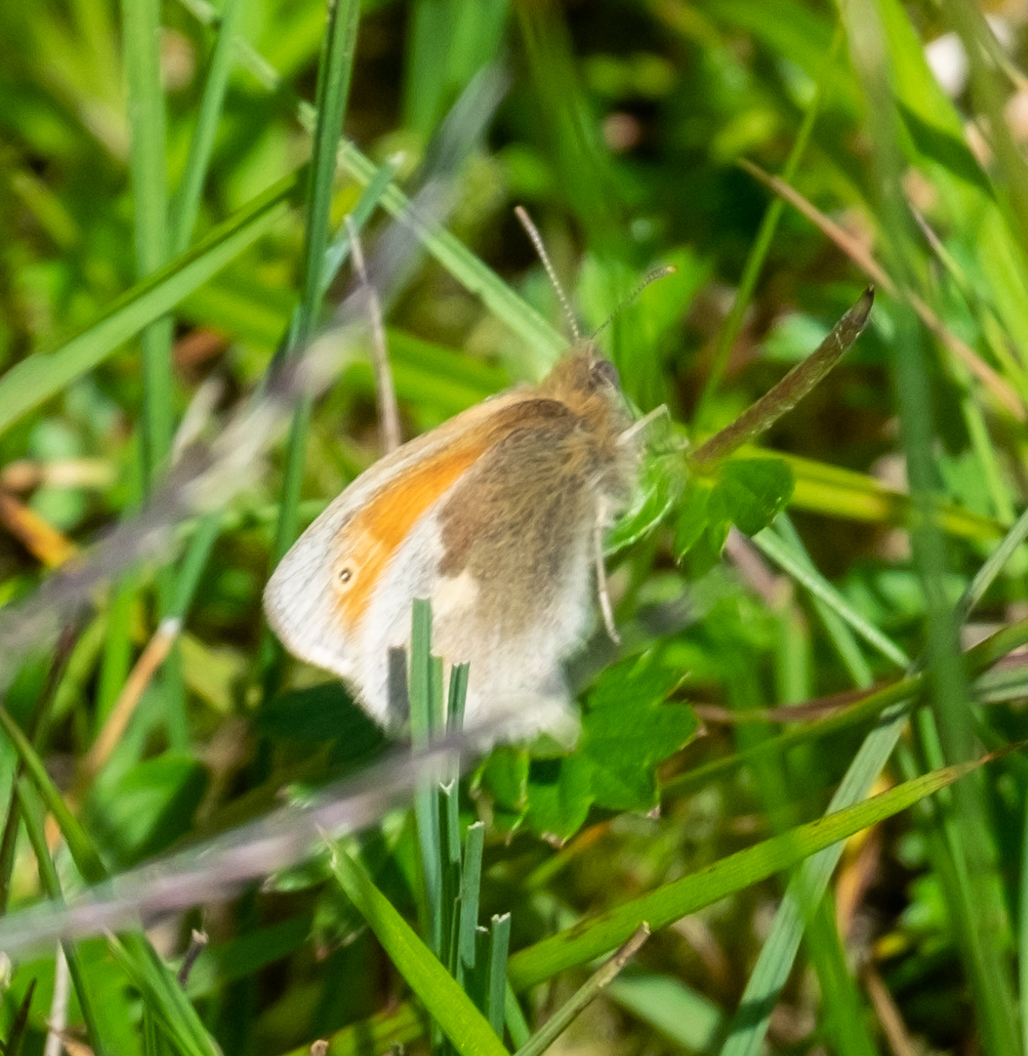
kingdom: Animalia
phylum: Arthropoda
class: Insecta
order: Lepidoptera
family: Nymphalidae
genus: Coenonympha
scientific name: Coenonympha pamphilus
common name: Small heath
